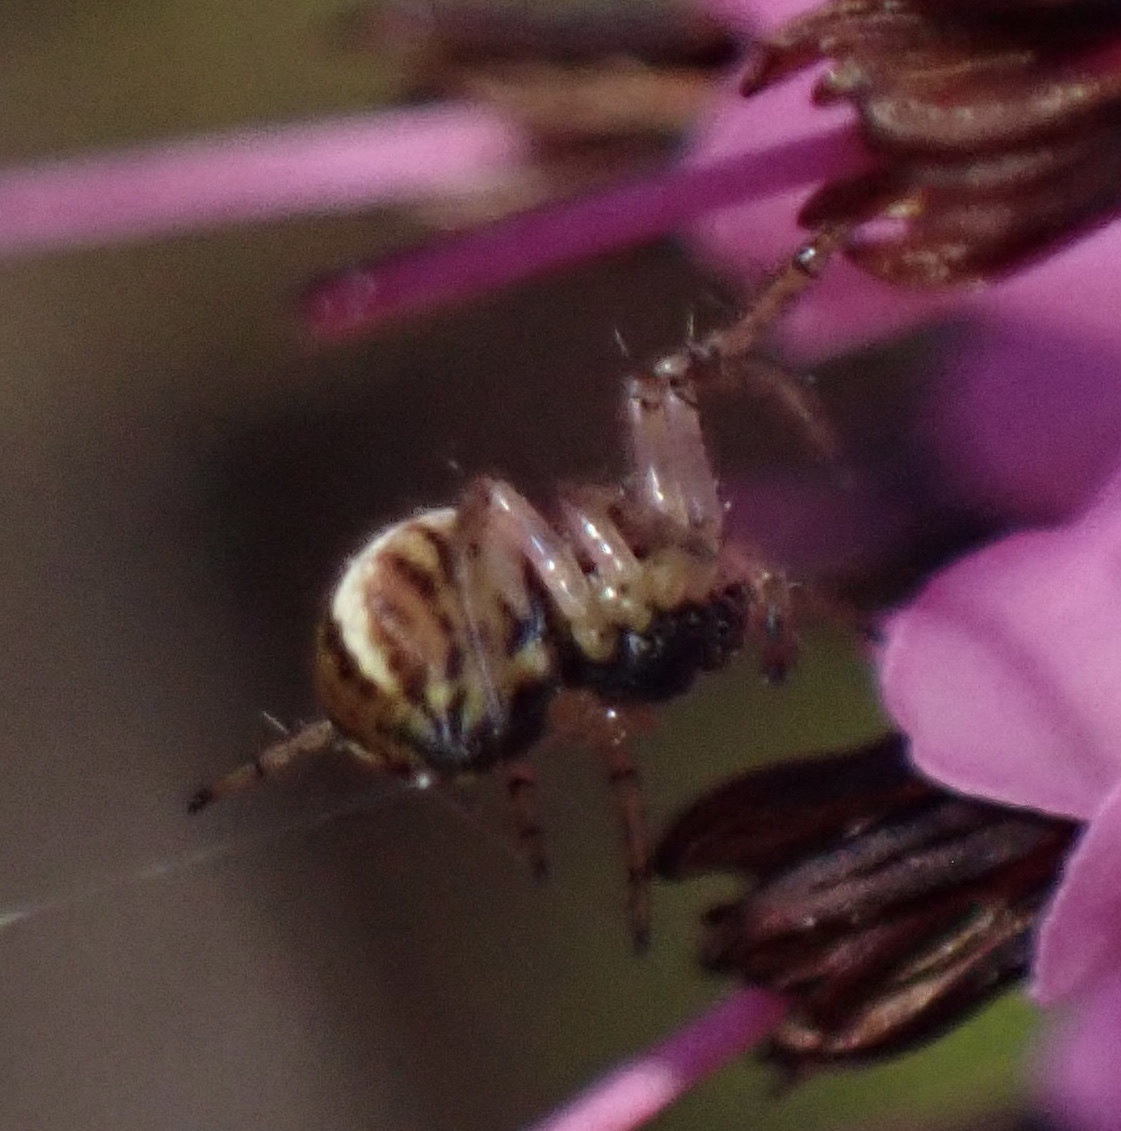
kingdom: Animalia
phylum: Arthropoda
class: Arachnida
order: Araneae
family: Araneidae
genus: Mangora
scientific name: Mangora acalypha
